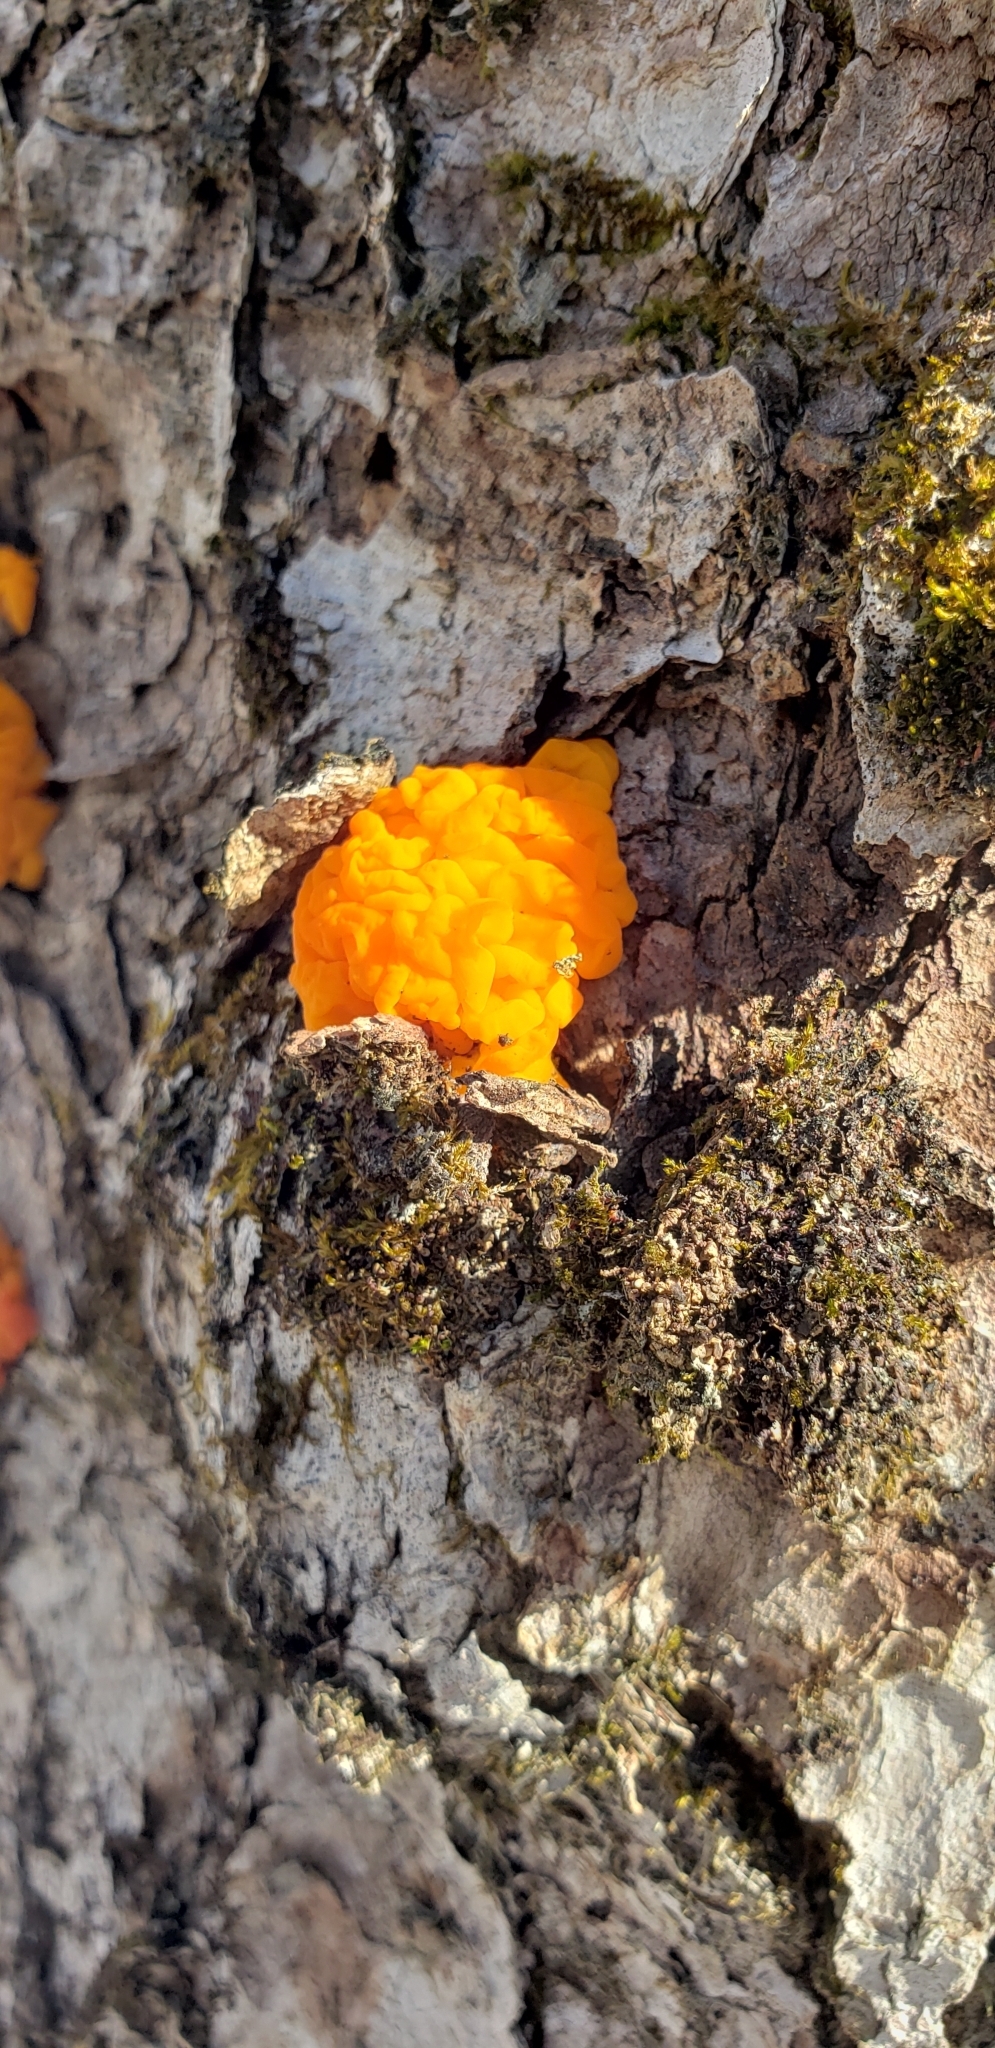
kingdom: Fungi
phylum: Basidiomycota
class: Dacrymycetes
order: Dacrymycetales
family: Dacrymycetaceae
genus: Dacrymyces
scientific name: Dacrymyces chrysospermus
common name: Orange jelly spot
